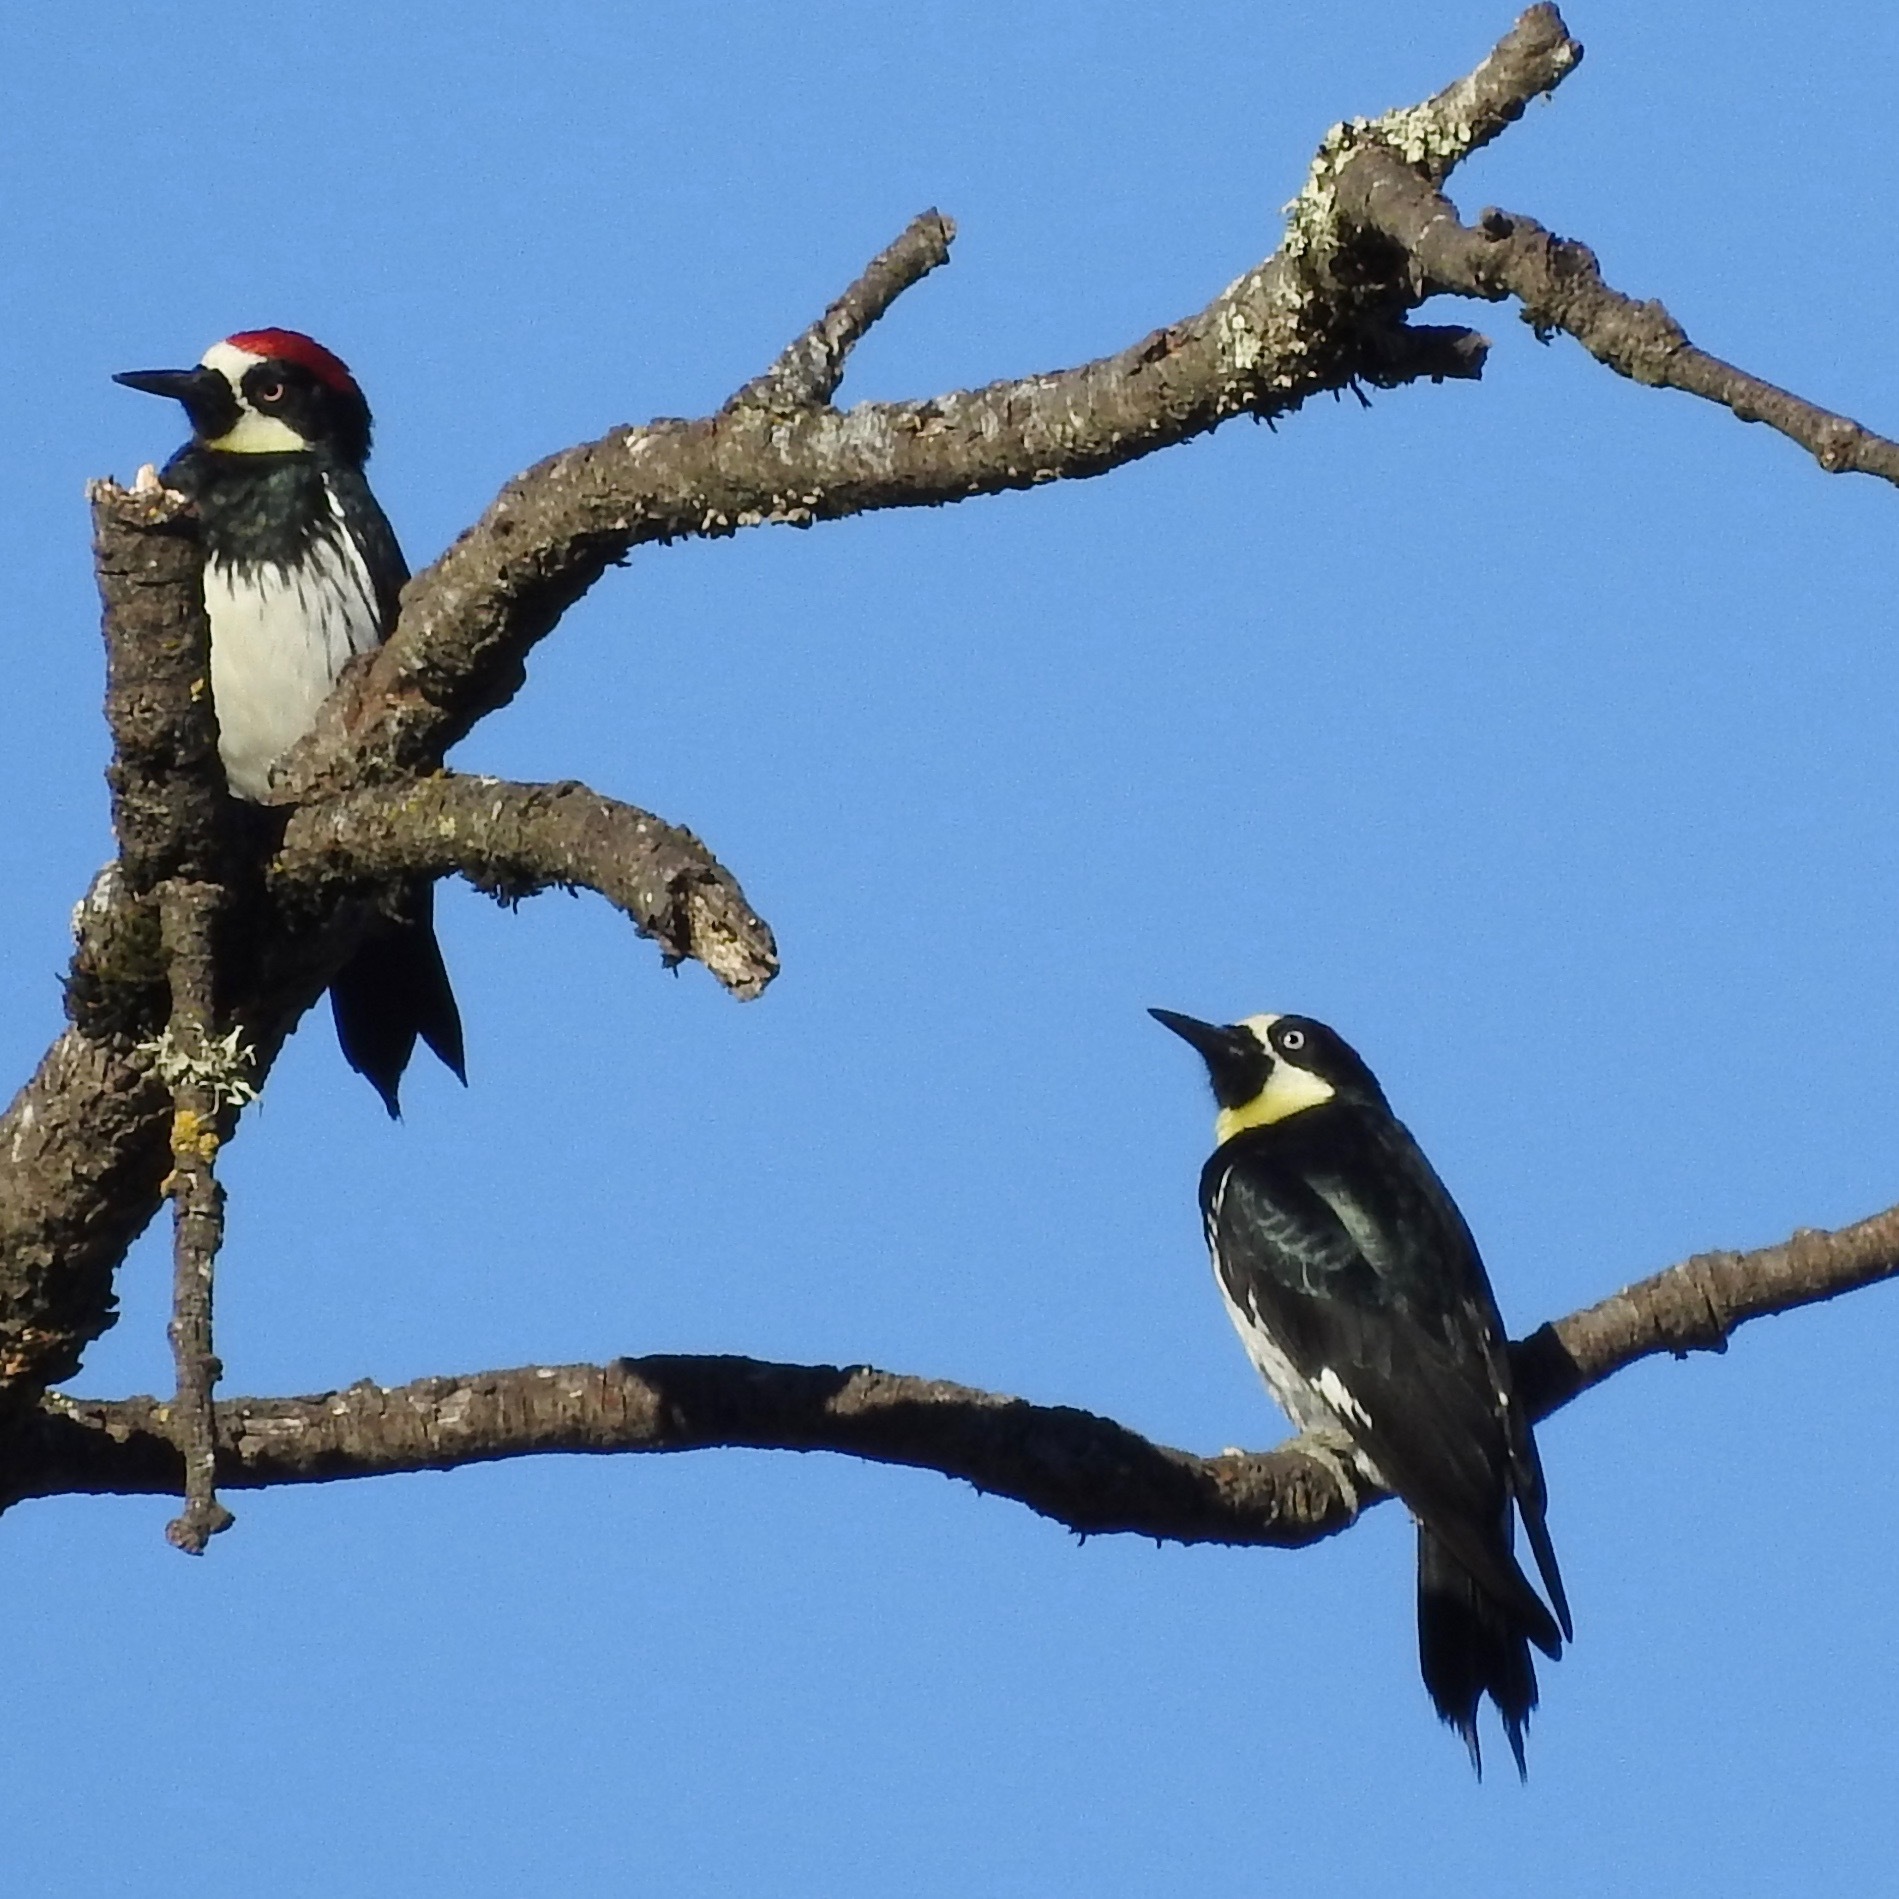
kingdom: Animalia
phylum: Chordata
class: Aves
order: Piciformes
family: Picidae
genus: Melanerpes
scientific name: Melanerpes formicivorus
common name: Acorn woodpecker
